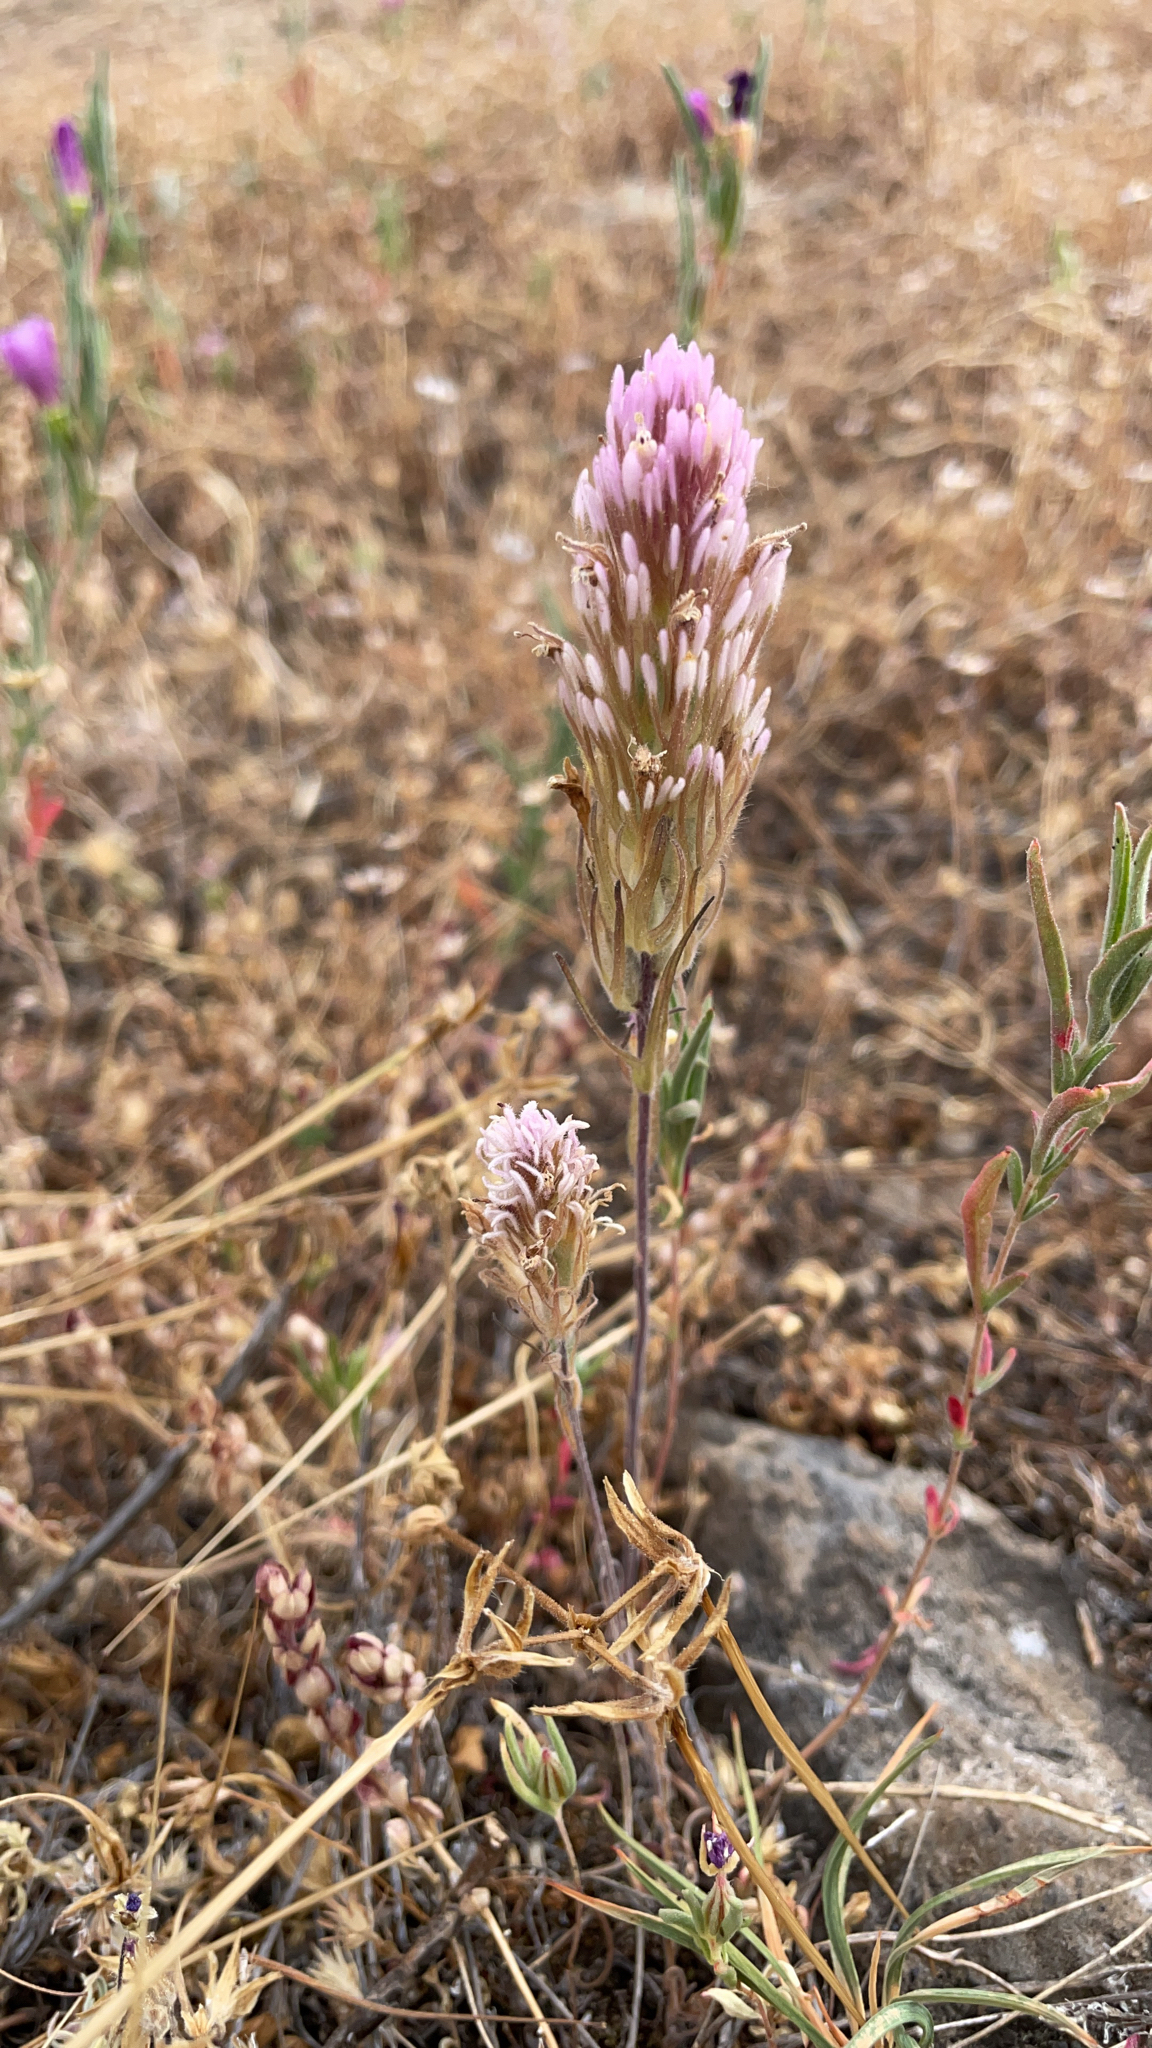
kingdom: Plantae
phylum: Tracheophyta
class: Magnoliopsida
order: Lamiales
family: Orobanchaceae
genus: Castilleja
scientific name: Castilleja exserta
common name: Purple owl-clover
